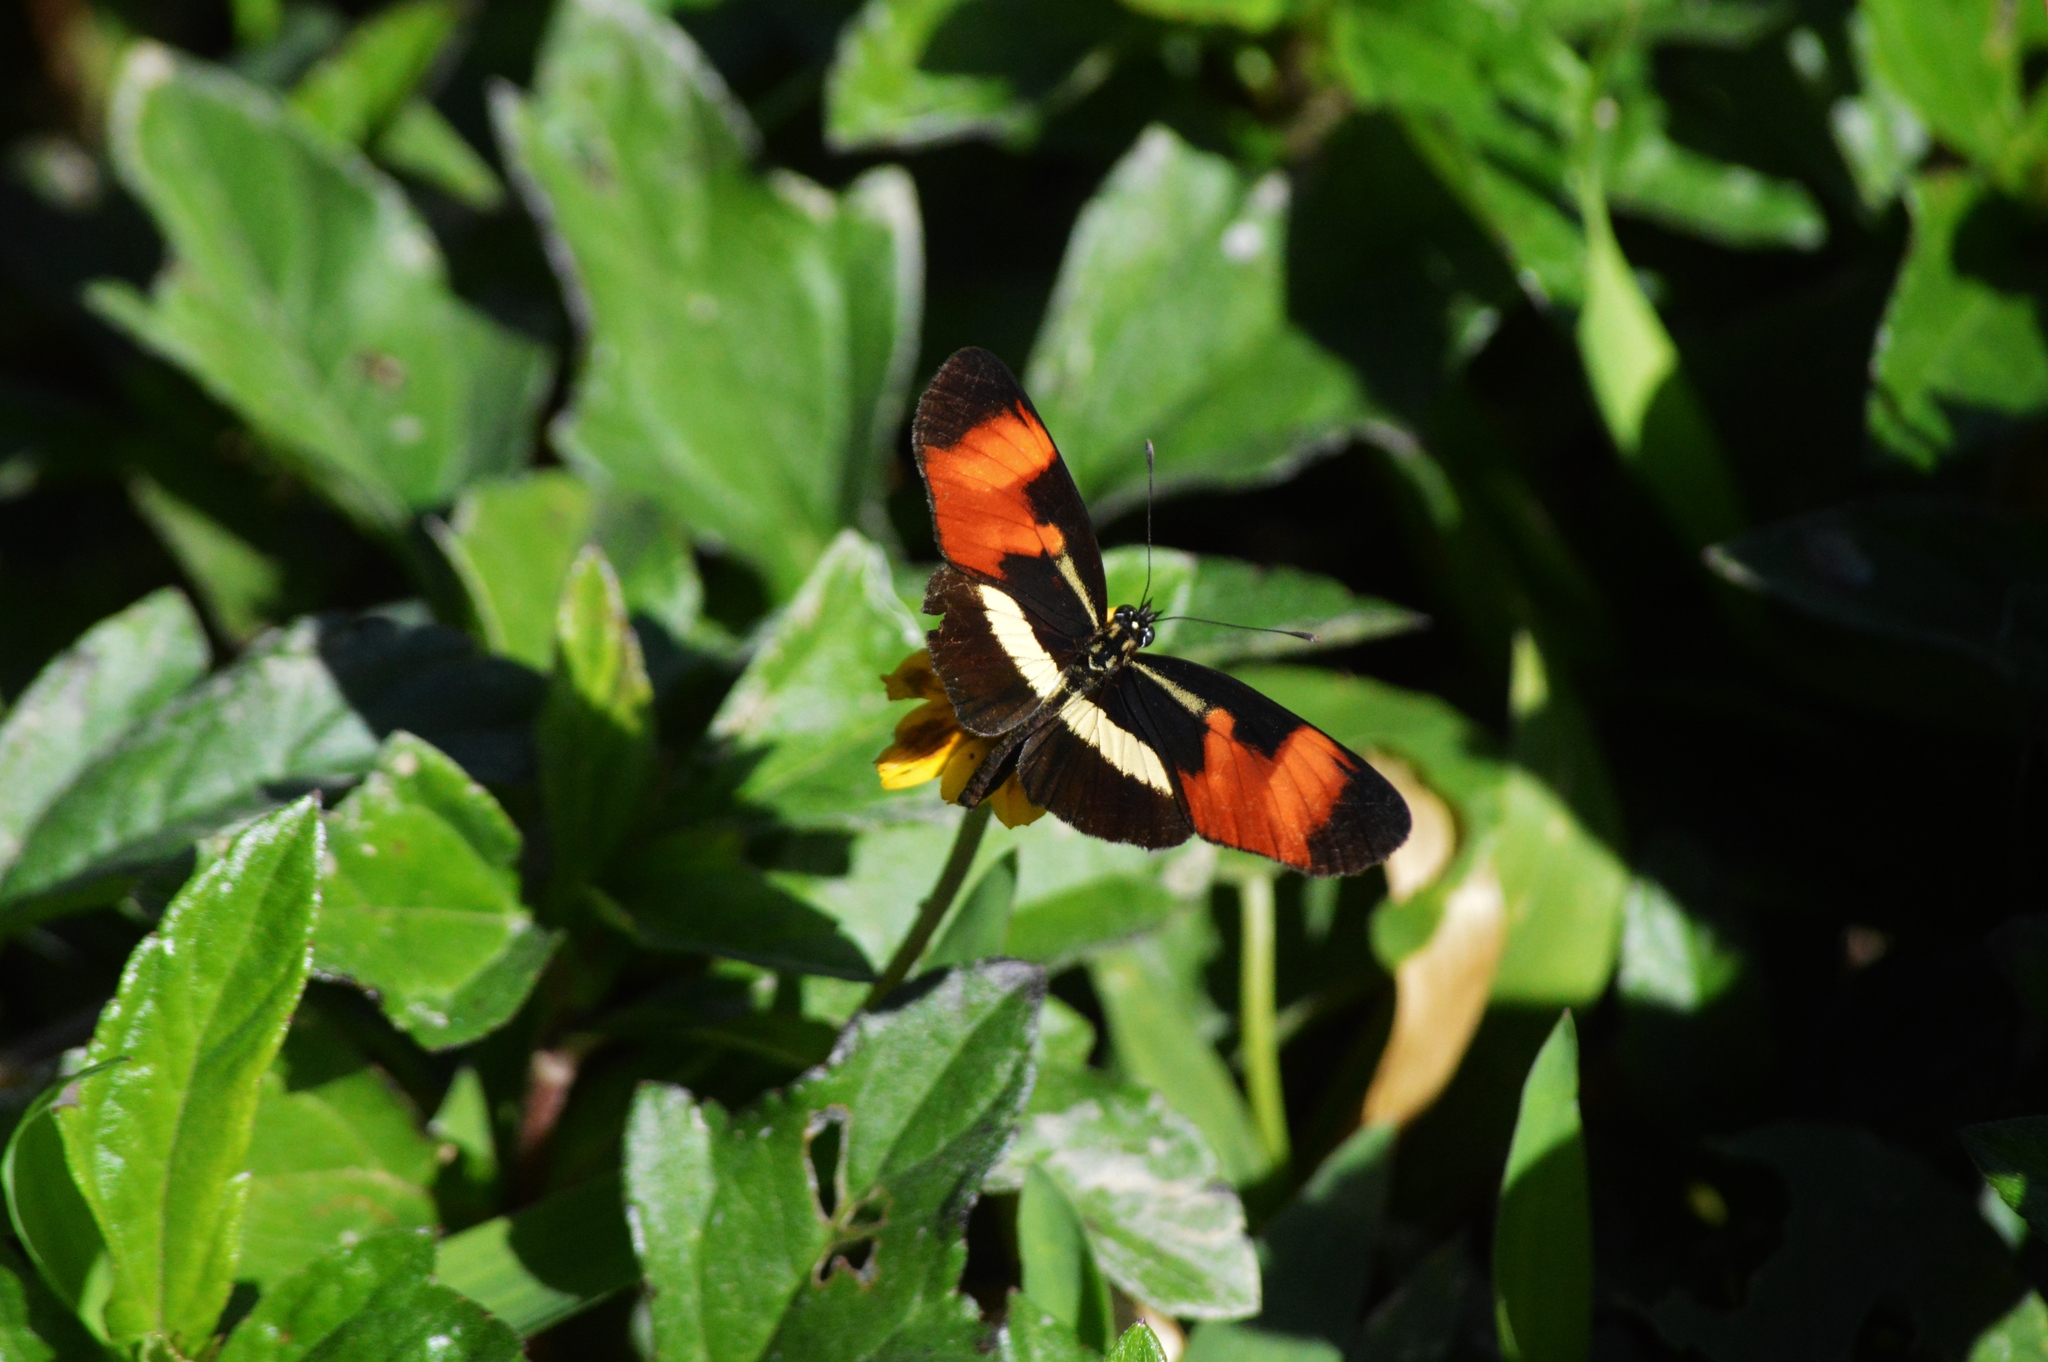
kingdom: Animalia
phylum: Arthropoda
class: Insecta
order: Lepidoptera
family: Nymphalidae
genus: Eresia
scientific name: Eresia lansdorfi
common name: Lansdorf's crescent
